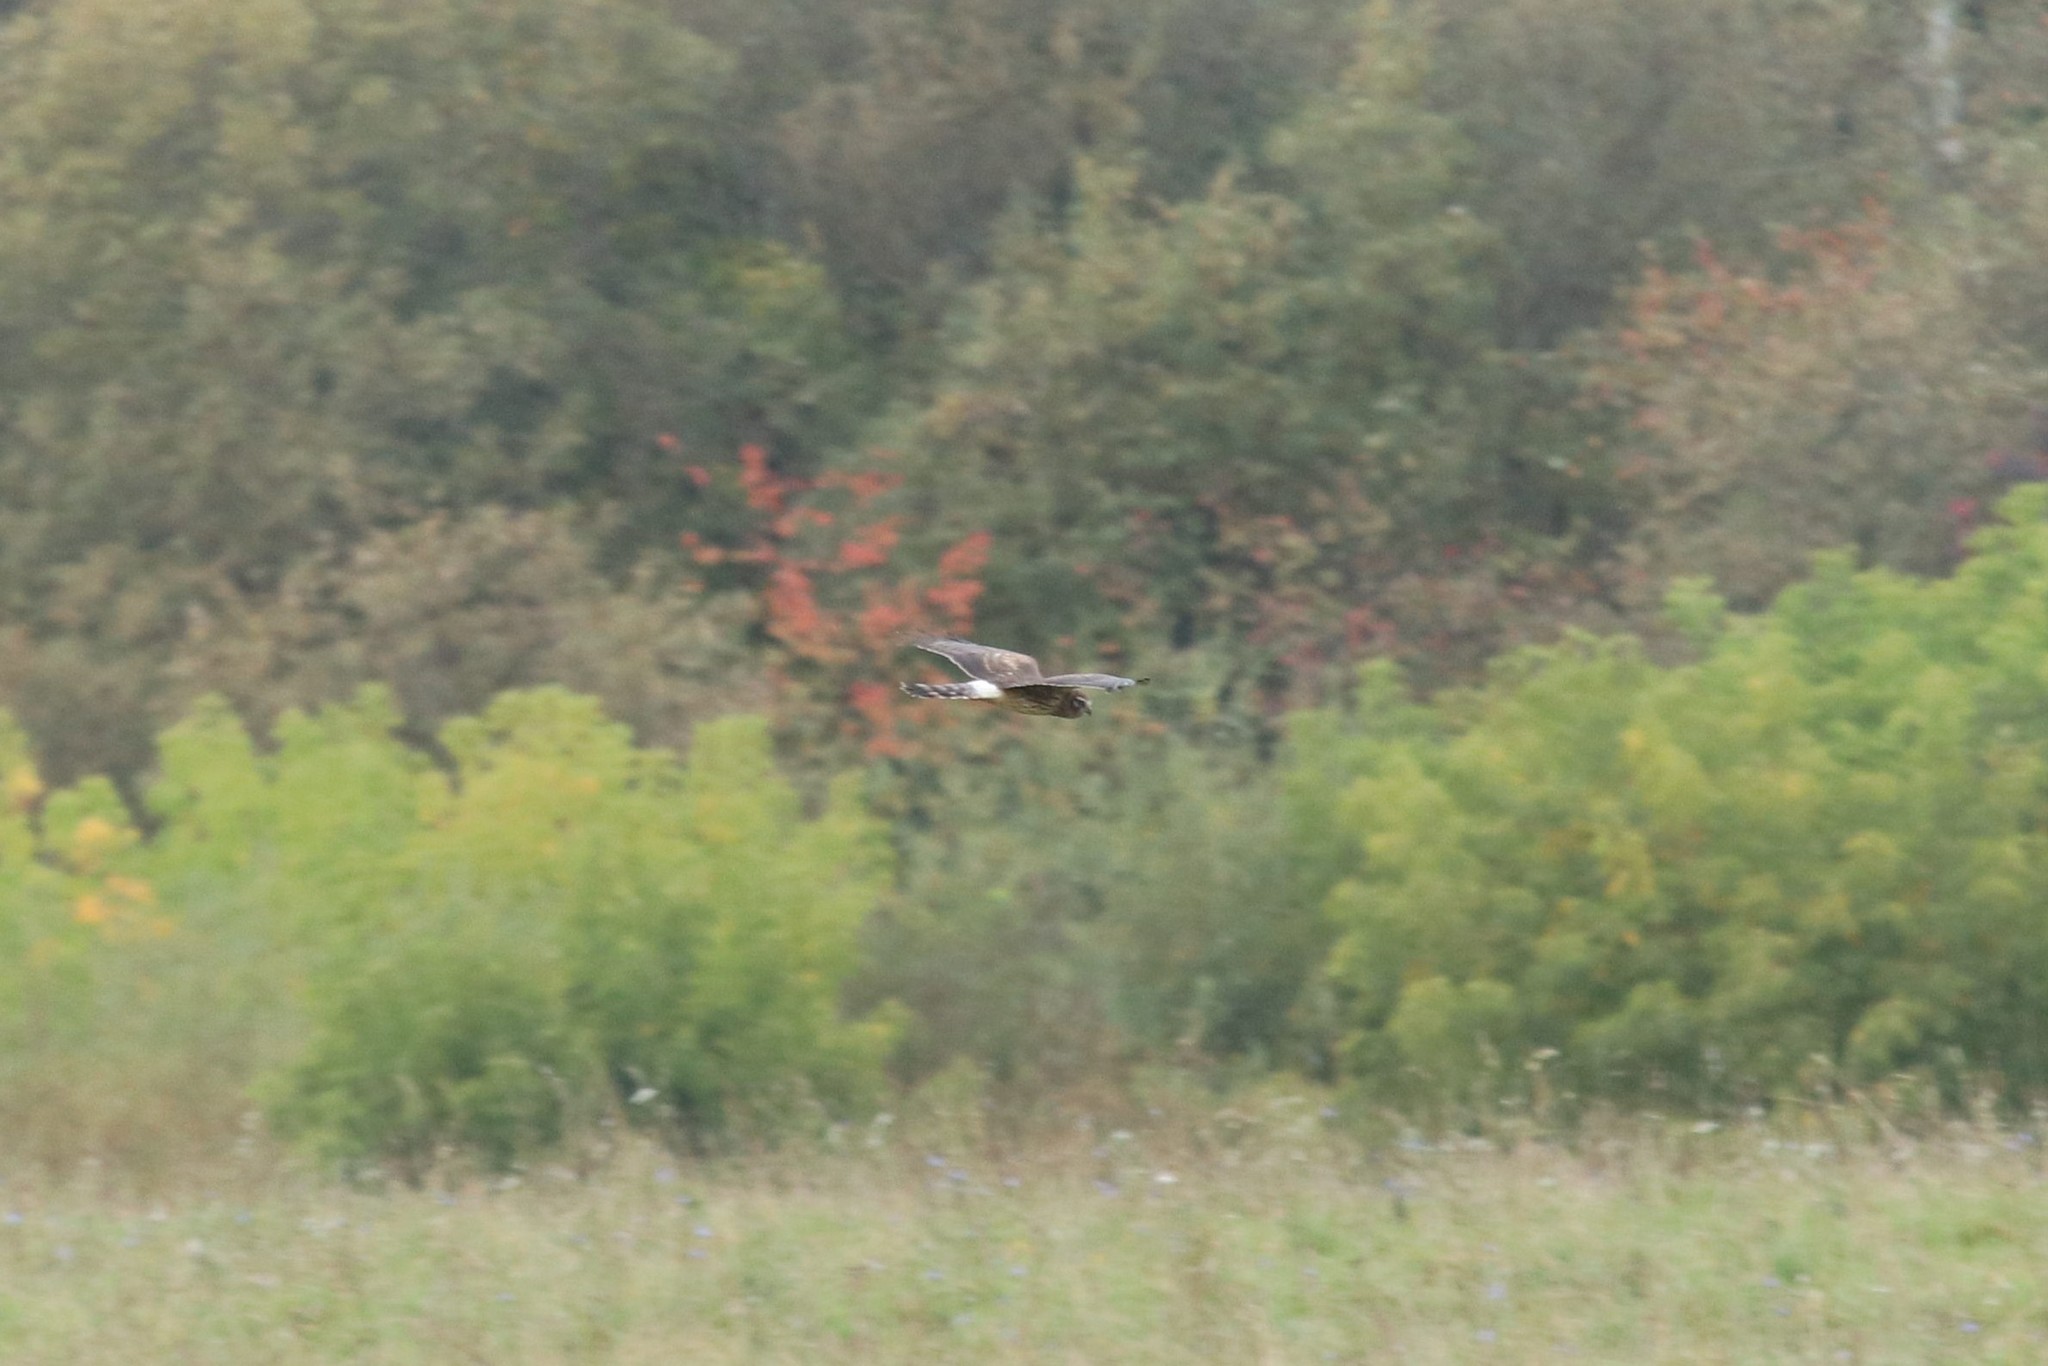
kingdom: Animalia
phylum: Chordata
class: Aves
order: Accipitriformes
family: Accipitridae
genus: Circus
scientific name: Circus cyaneus
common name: Hen harrier
